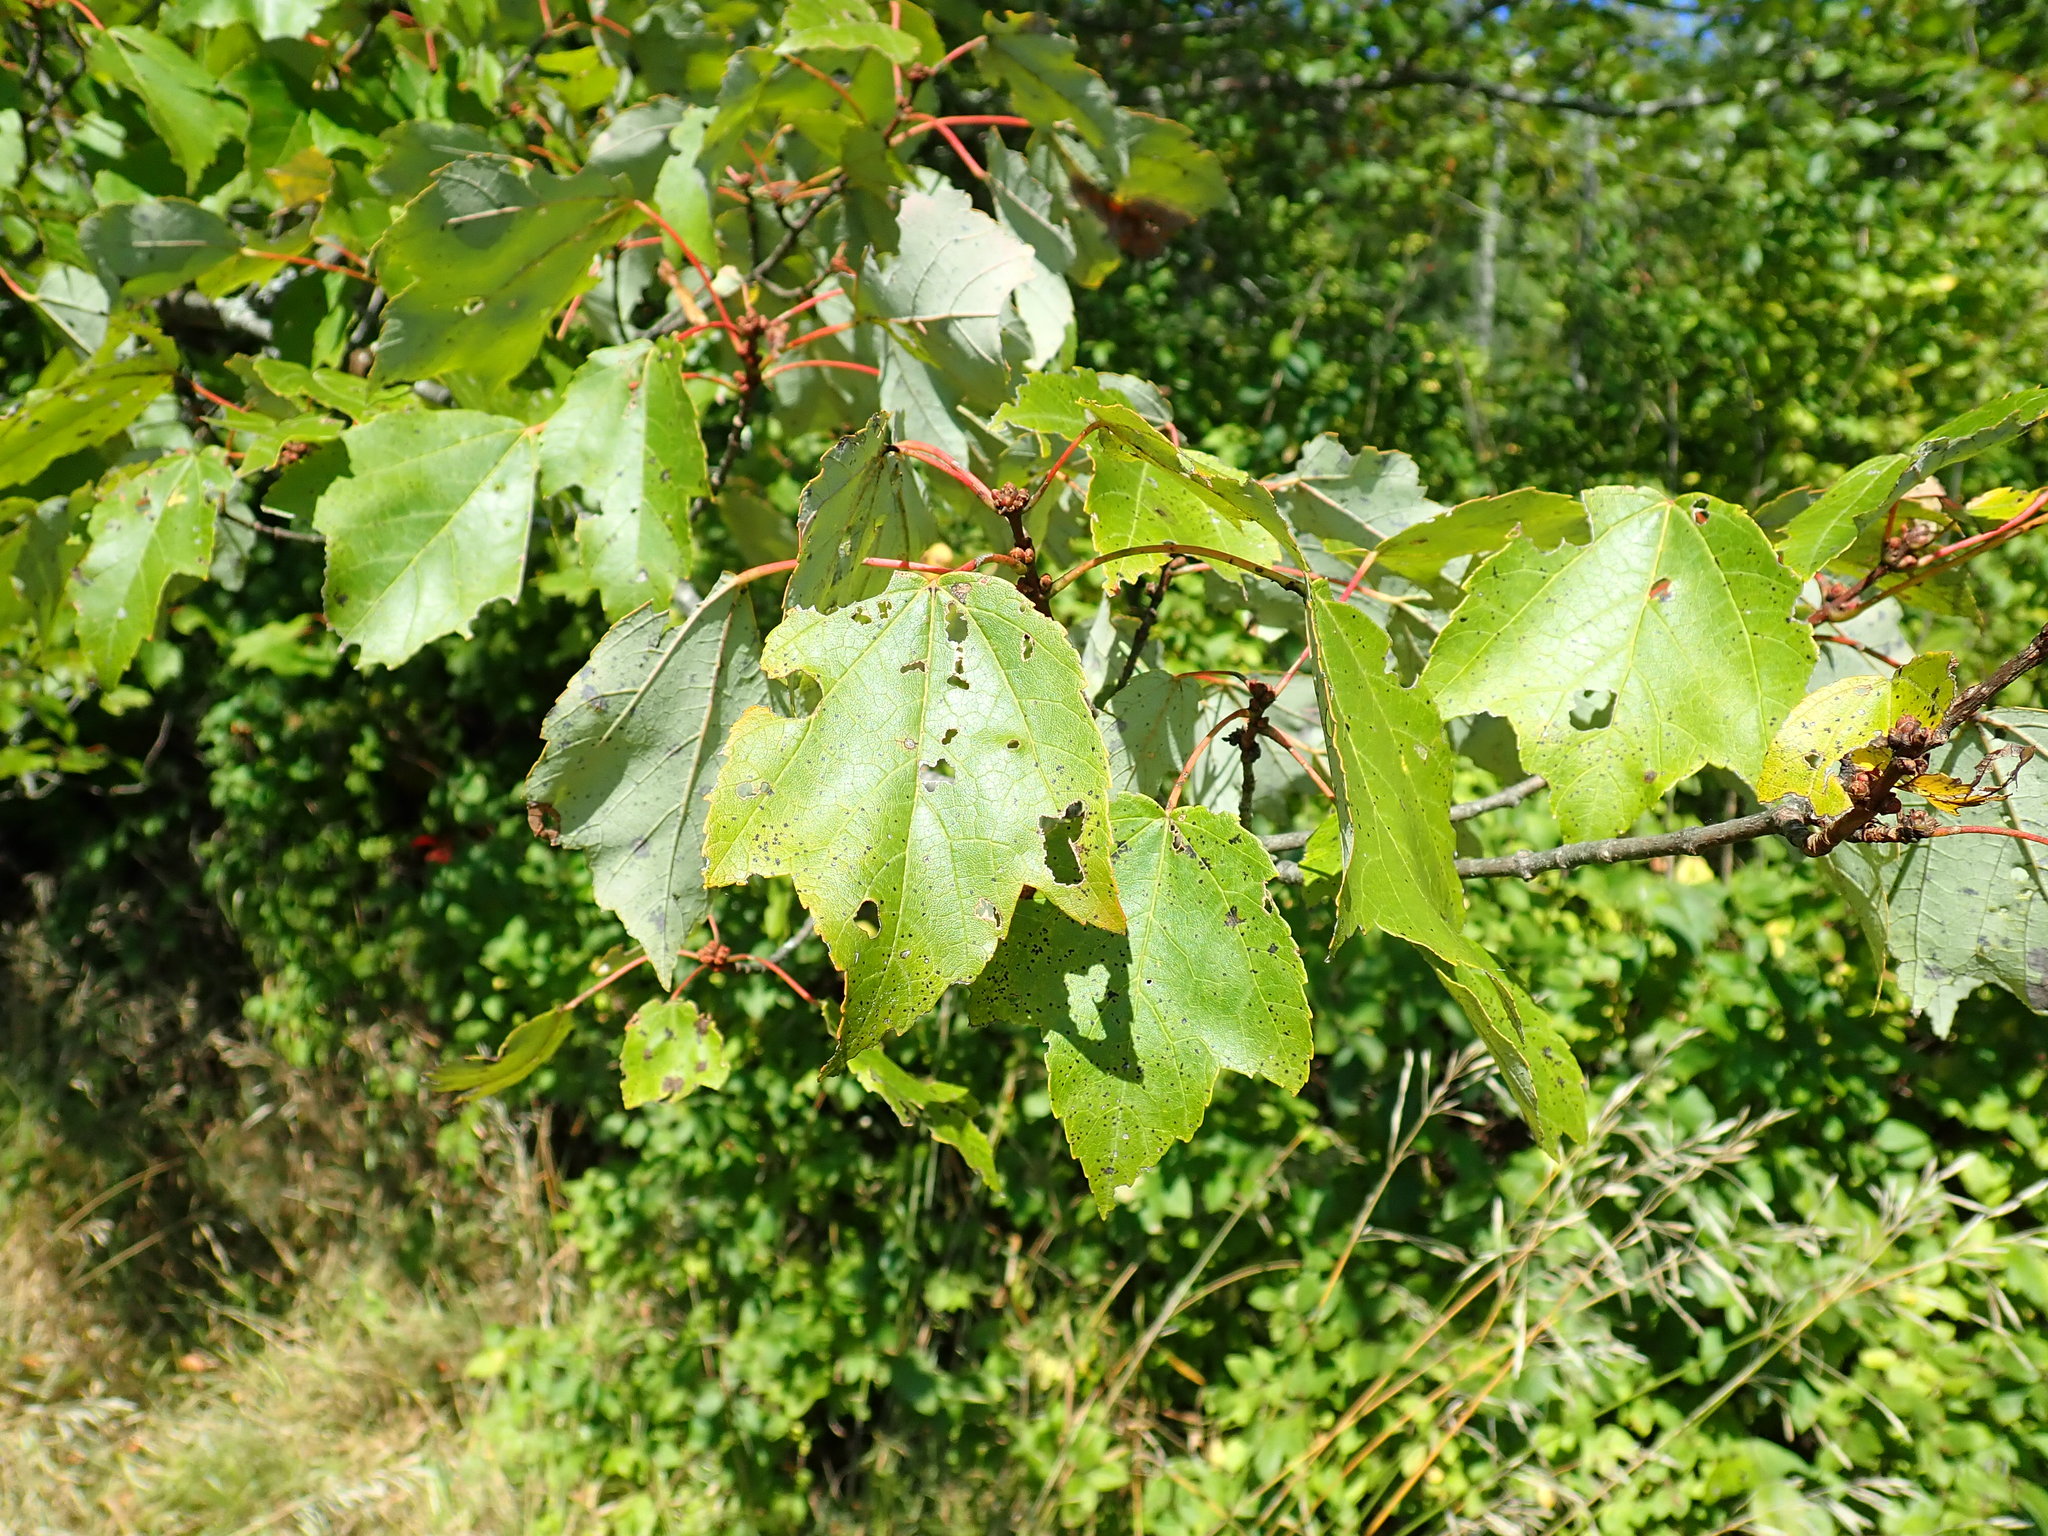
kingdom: Plantae
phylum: Tracheophyta
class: Magnoliopsida
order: Sapindales
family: Sapindaceae
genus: Acer
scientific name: Acer rubrum
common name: Red maple
